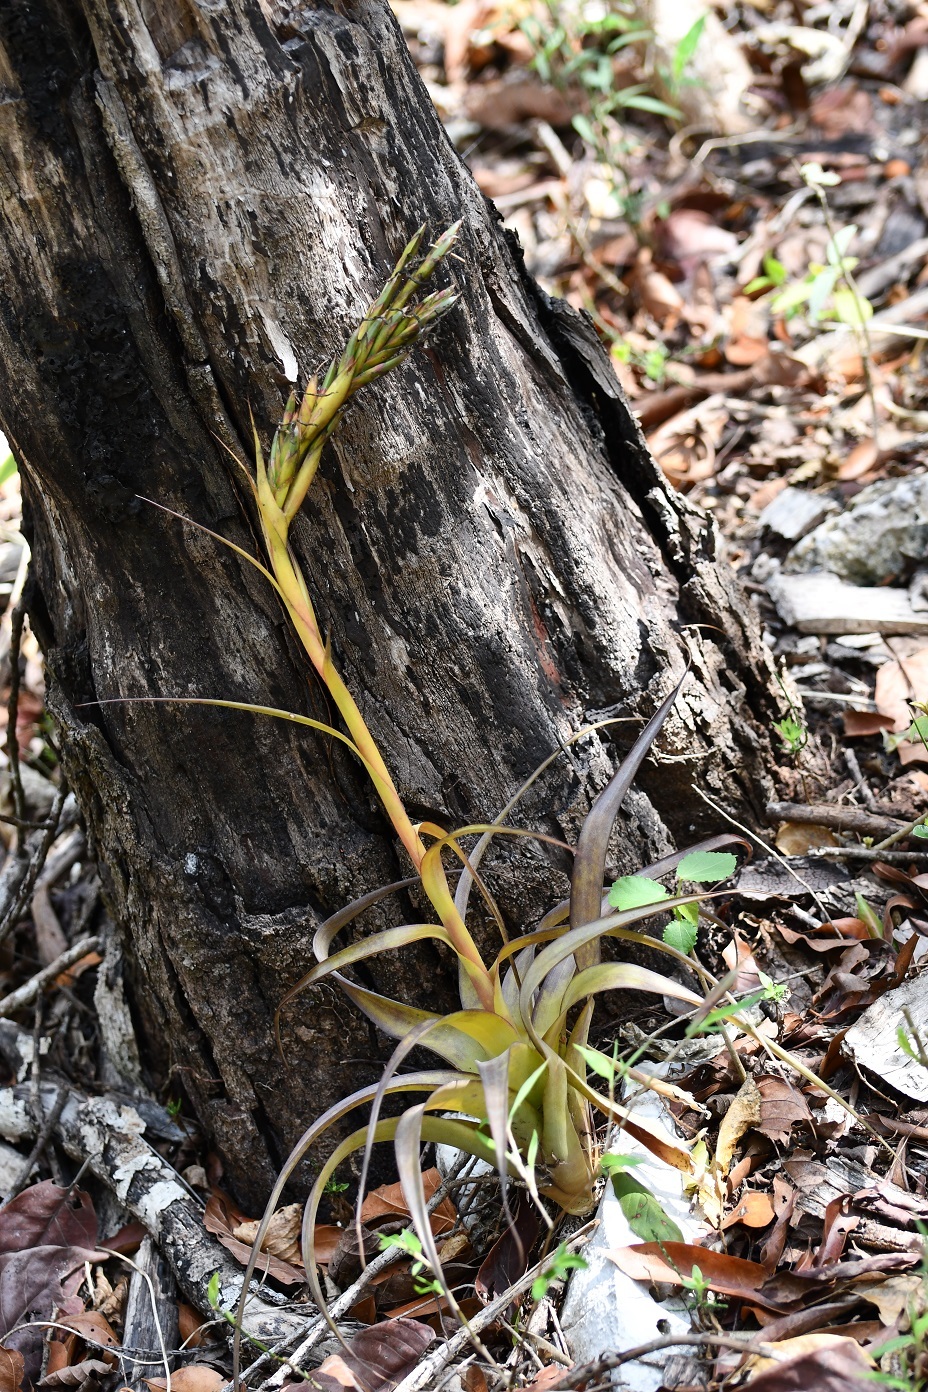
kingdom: Plantae
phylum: Tracheophyta
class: Liliopsida
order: Poales
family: Bromeliaceae
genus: Tillandsia
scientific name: Tillandsia belloensis
